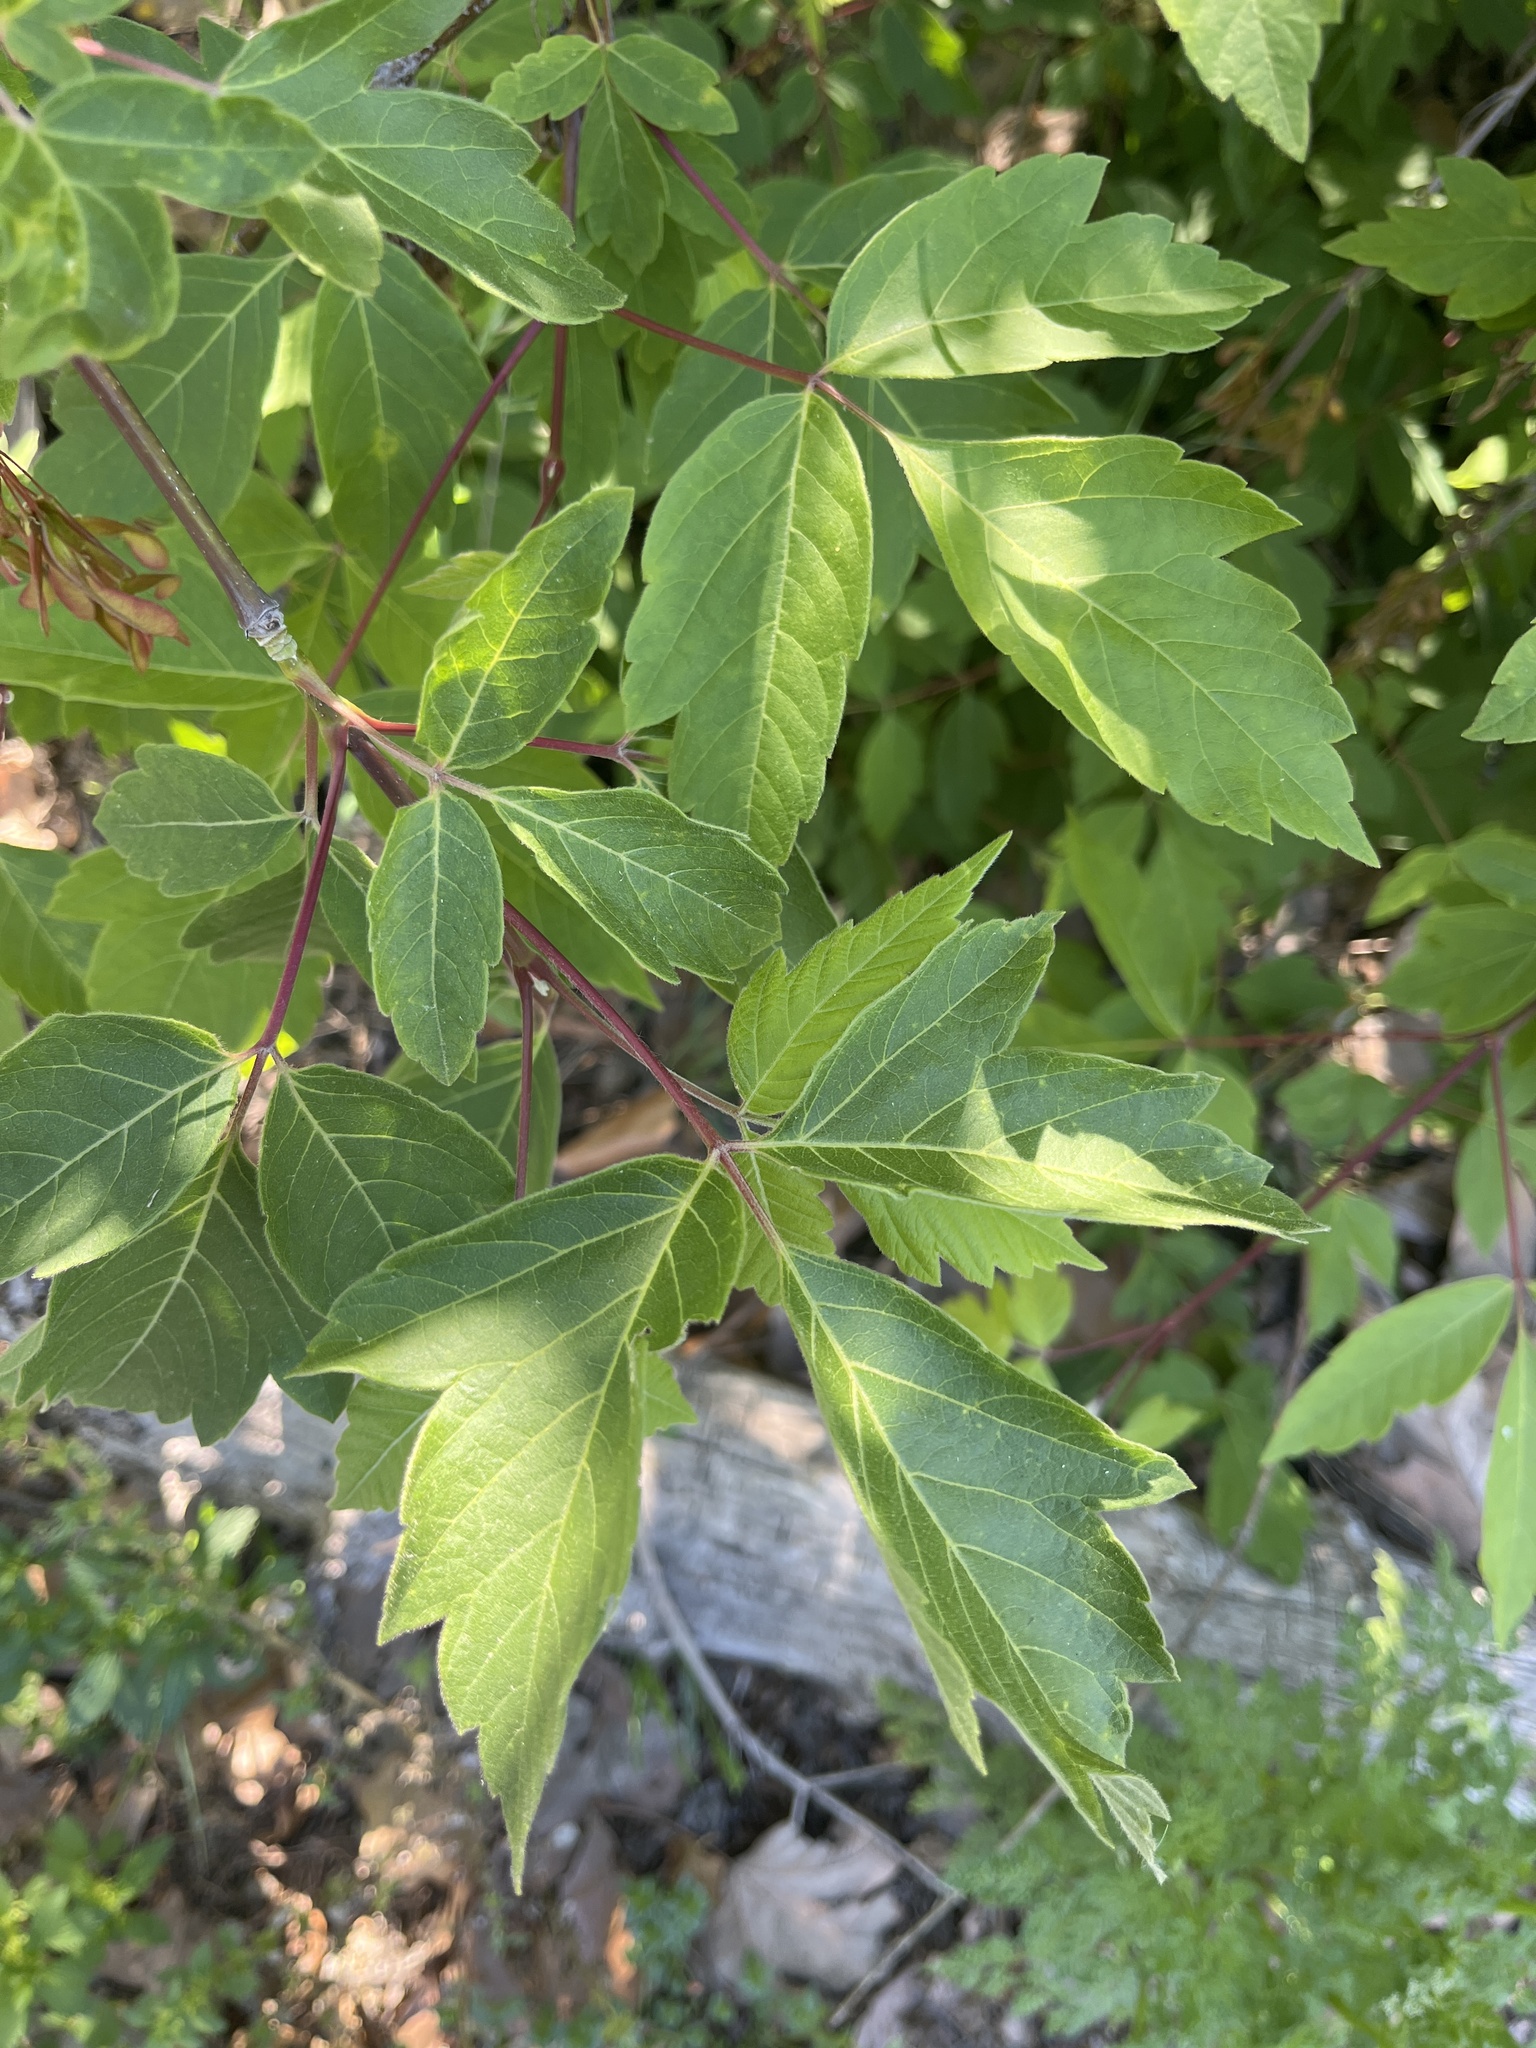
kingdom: Plantae
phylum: Tracheophyta
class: Magnoliopsida
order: Sapindales
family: Sapindaceae
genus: Acer
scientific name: Acer negundo
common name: Ashleaf maple
